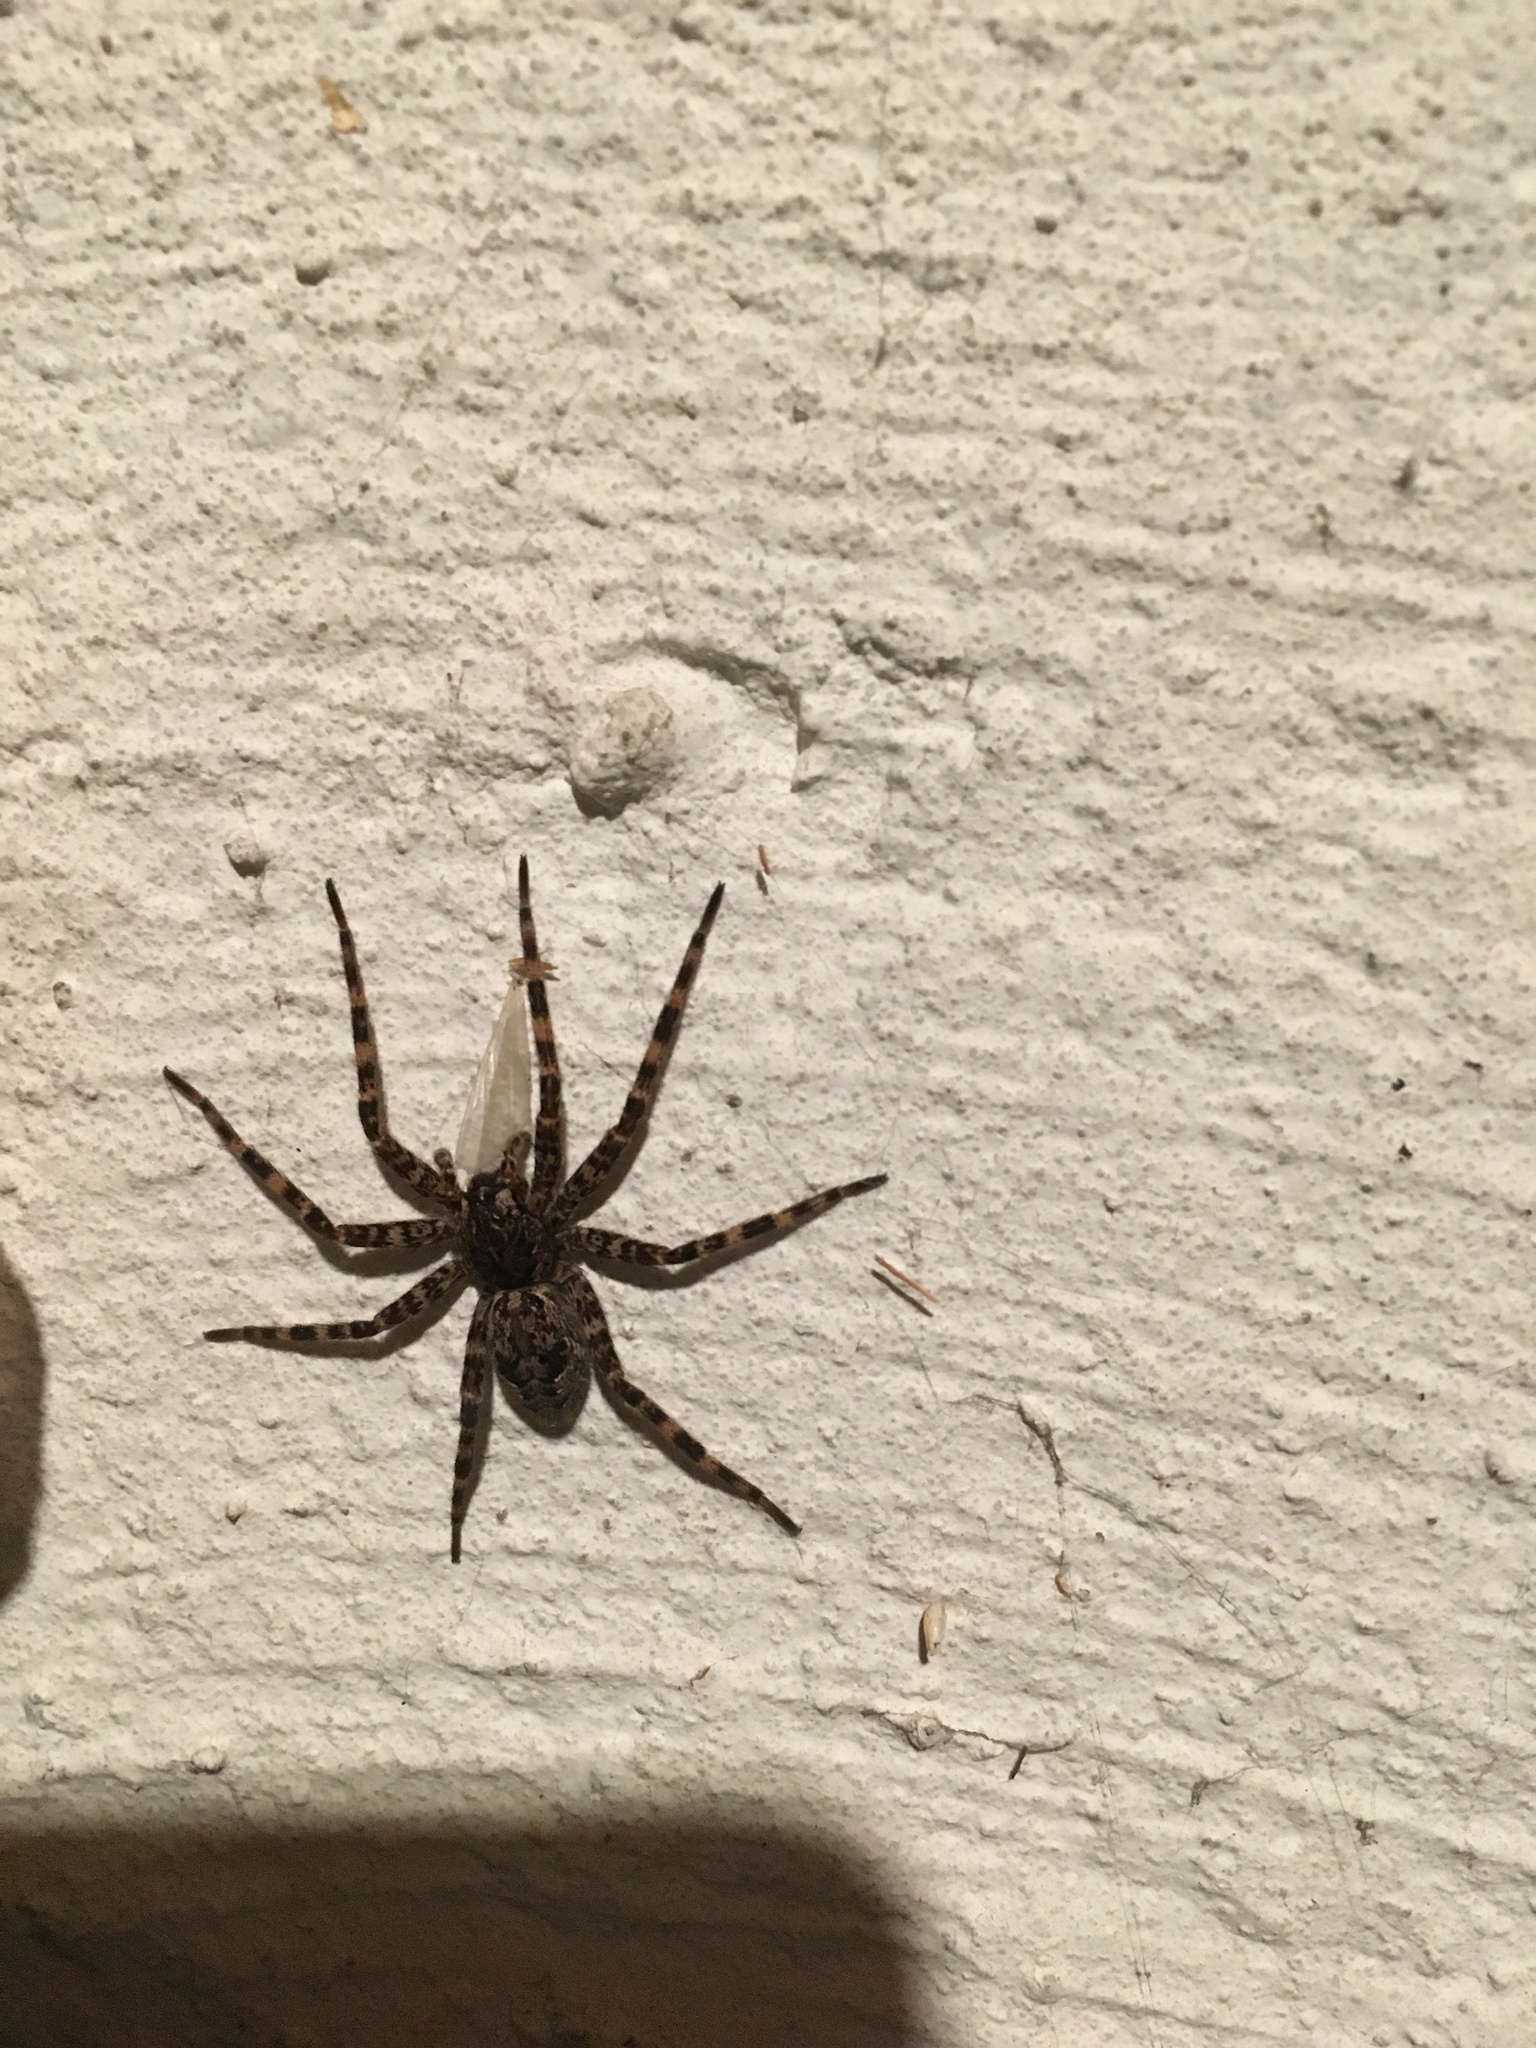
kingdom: Animalia
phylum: Arthropoda
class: Arachnida
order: Araneae
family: Pisauridae
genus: Dolomedes
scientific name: Dolomedes tenebrosus
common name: Dark fishing spider
